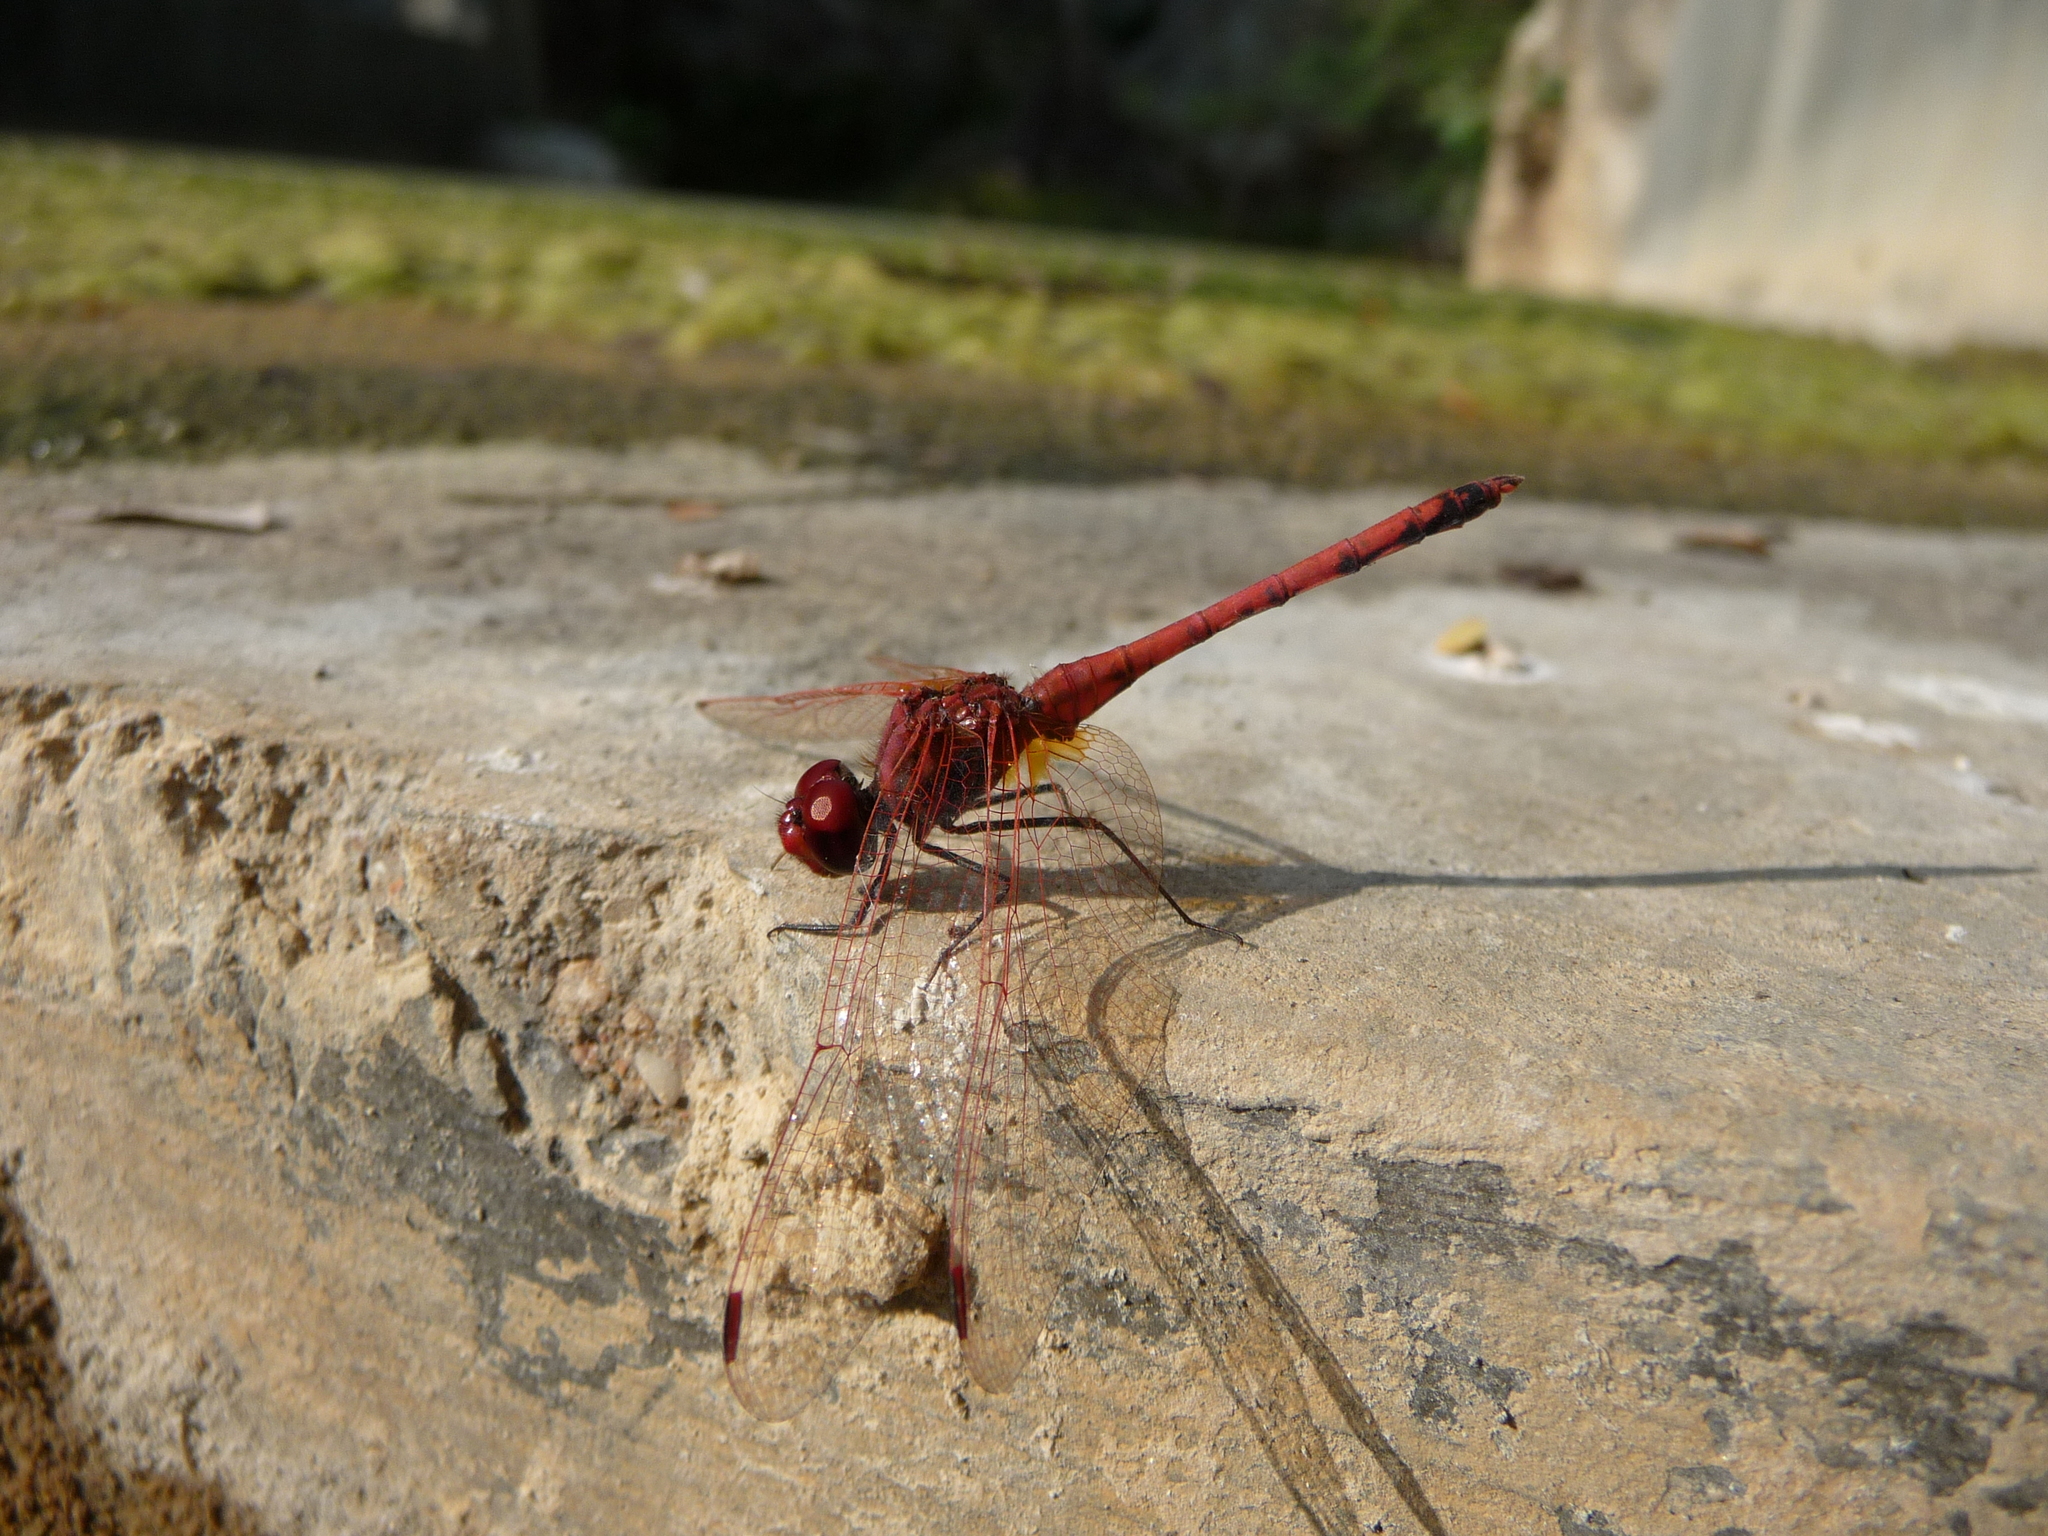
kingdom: Animalia
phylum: Arthropoda
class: Insecta
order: Odonata
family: Libellulidae
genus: Trithemis
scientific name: Trithemis arteriosa
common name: Red-veined dropwing
